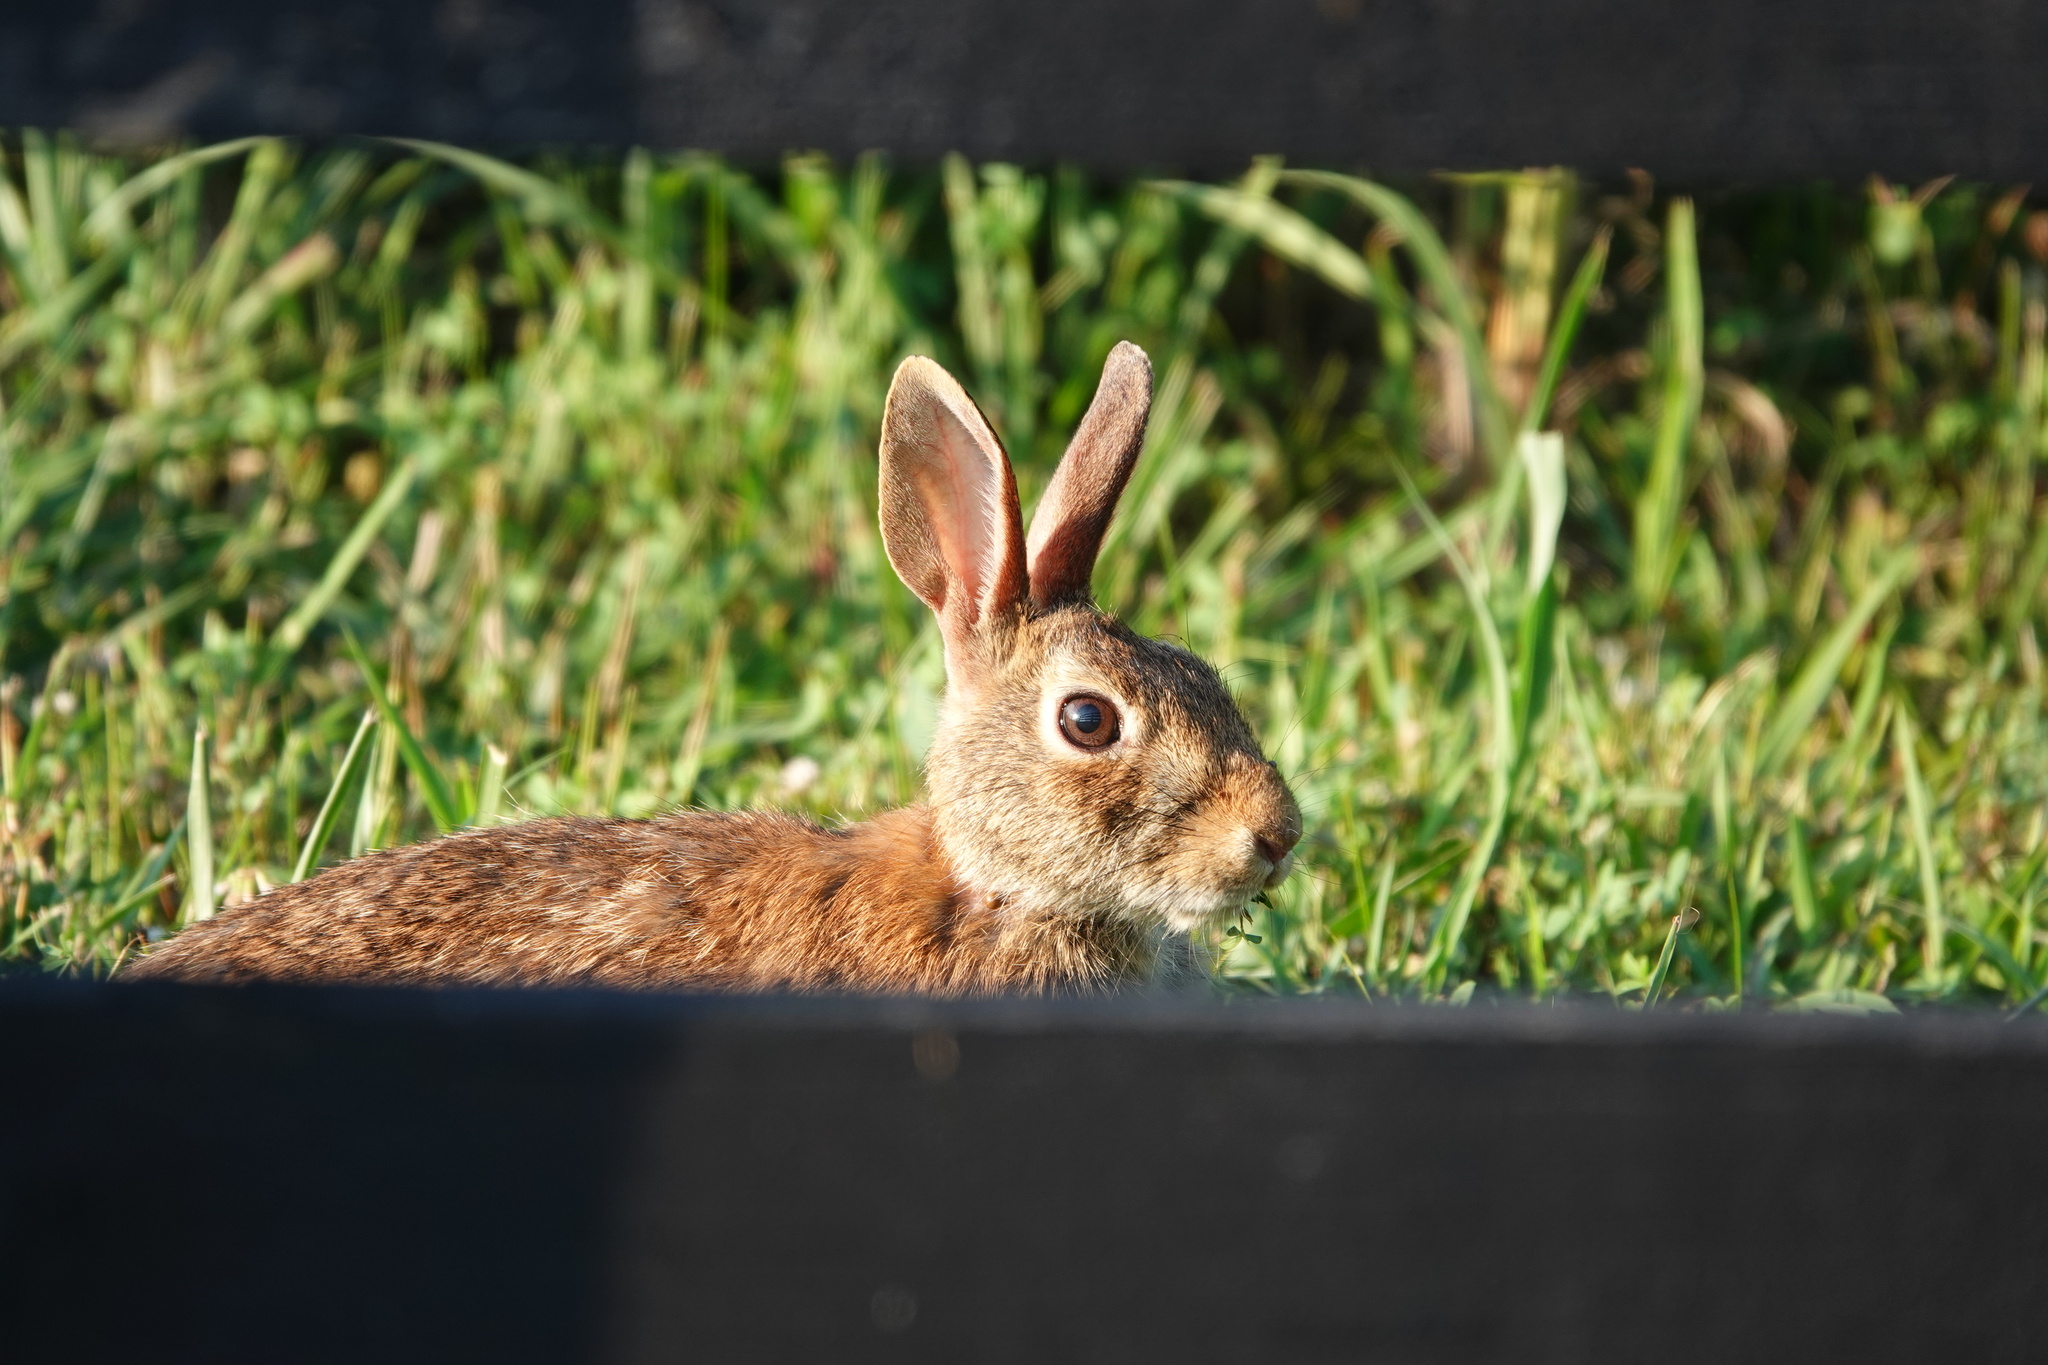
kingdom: Animalia
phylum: Chordata
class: Mammalia
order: Lagomorpha
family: Leporidae
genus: Sylvilagus
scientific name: Sylvilagus floridanus
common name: Eastern cottontail
